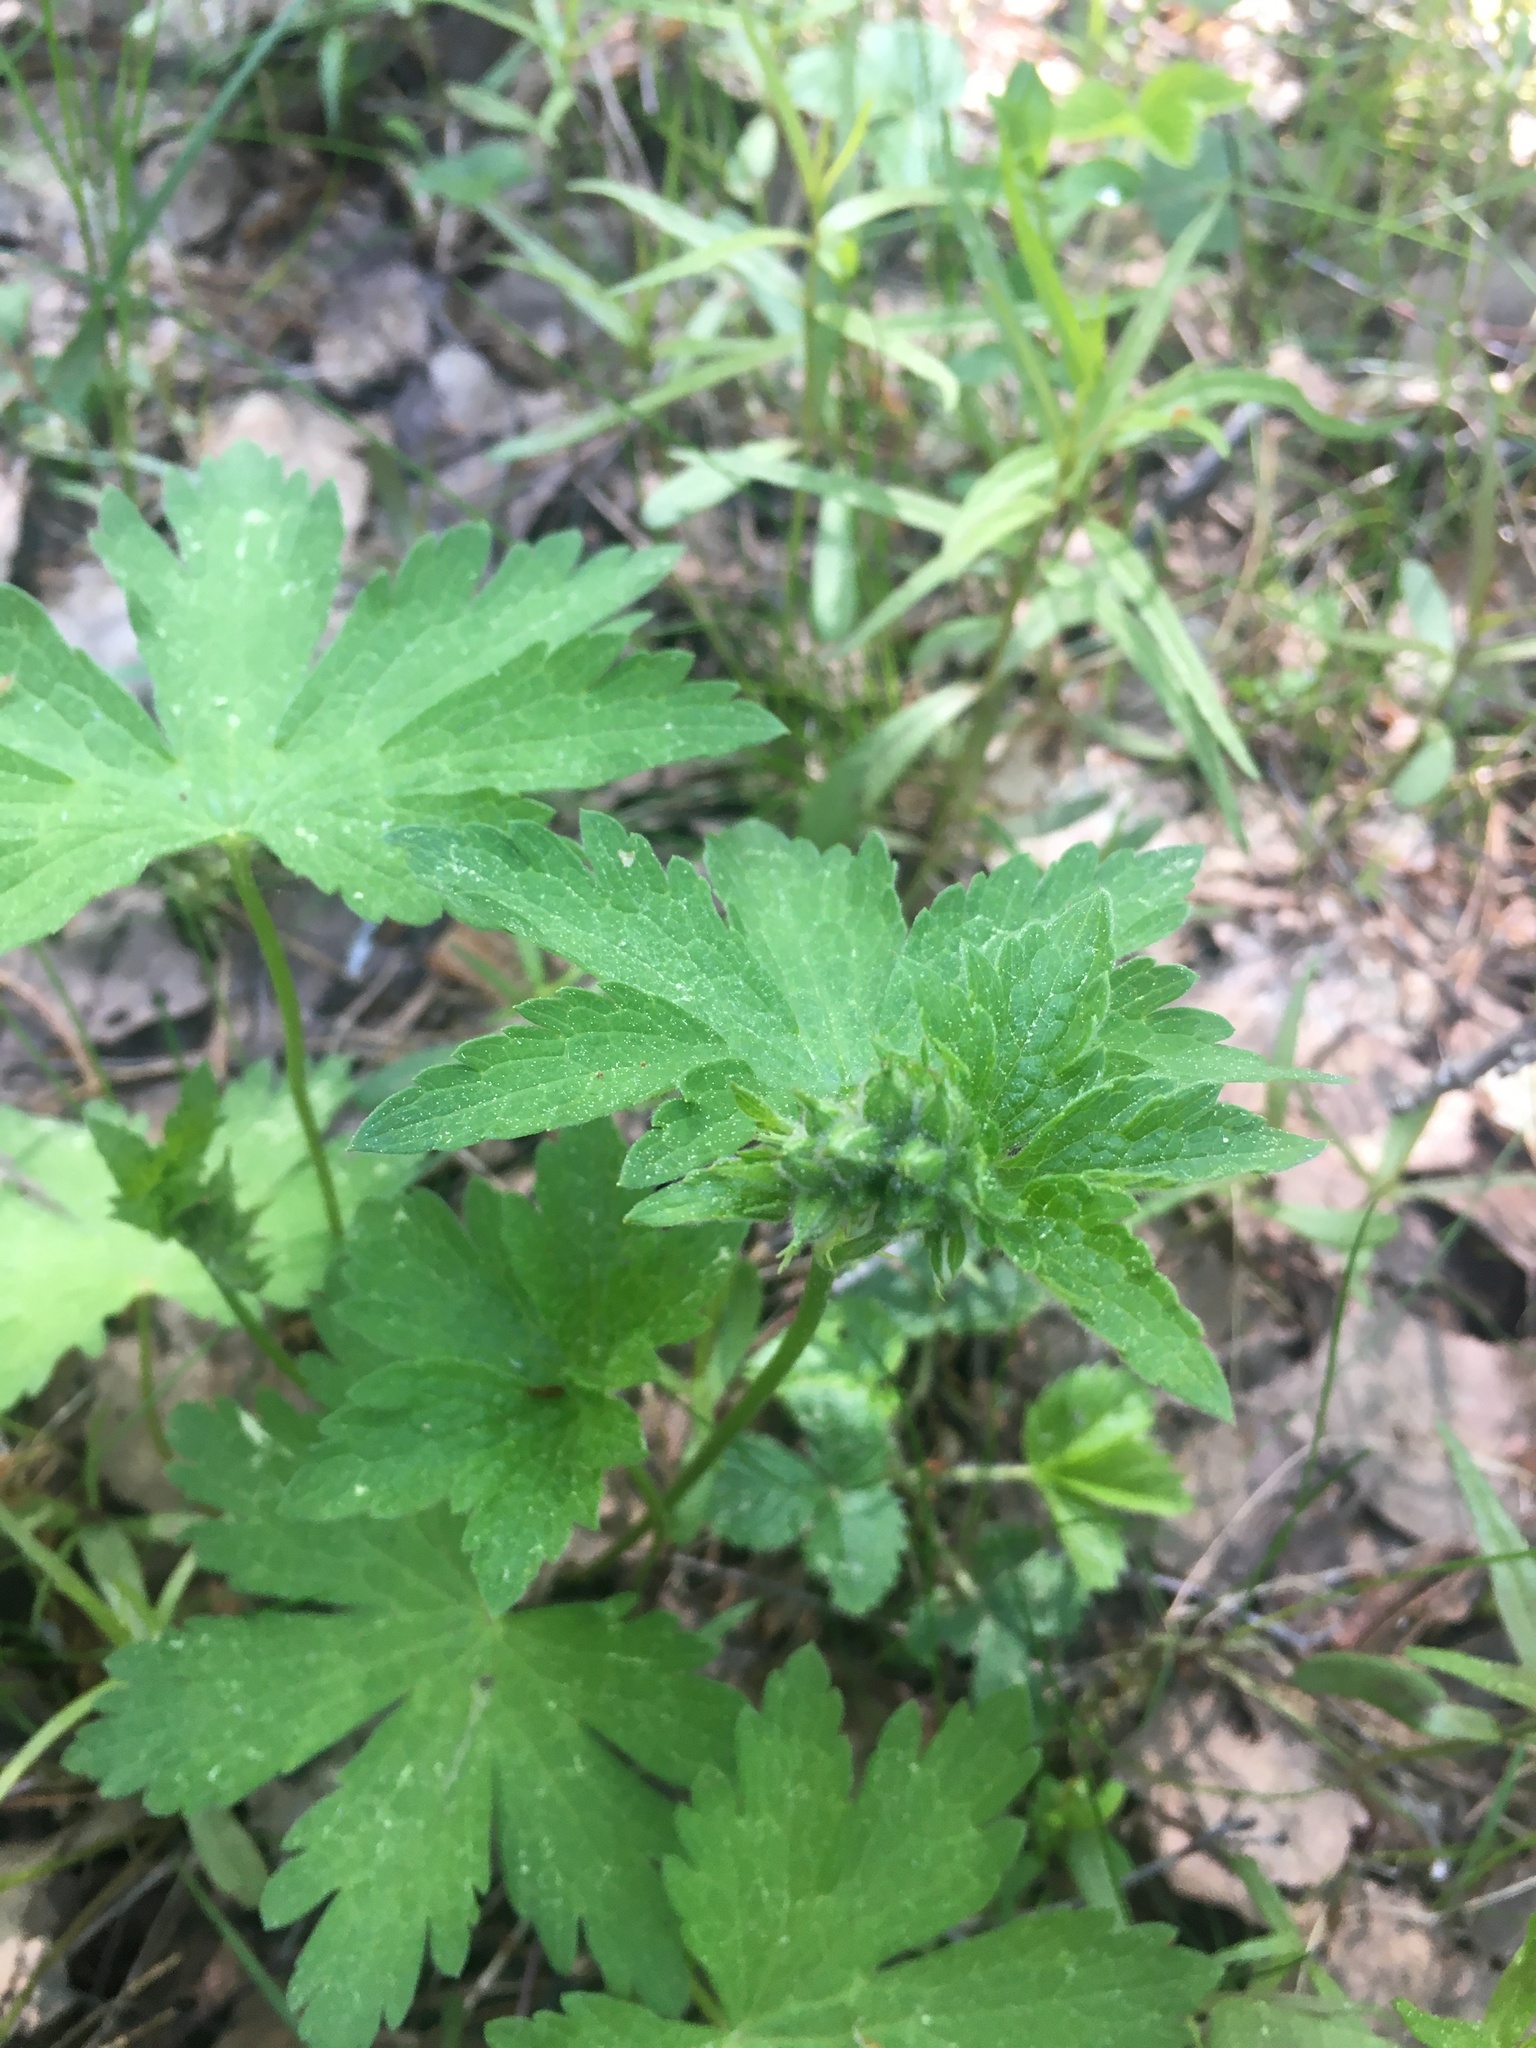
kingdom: Plantae
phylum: Tracheophyta
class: Magnoliopsida
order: Geraniales
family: Geraniaceae
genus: Geranium
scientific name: Geranium sylvaticum
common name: Wood crane's-bill
